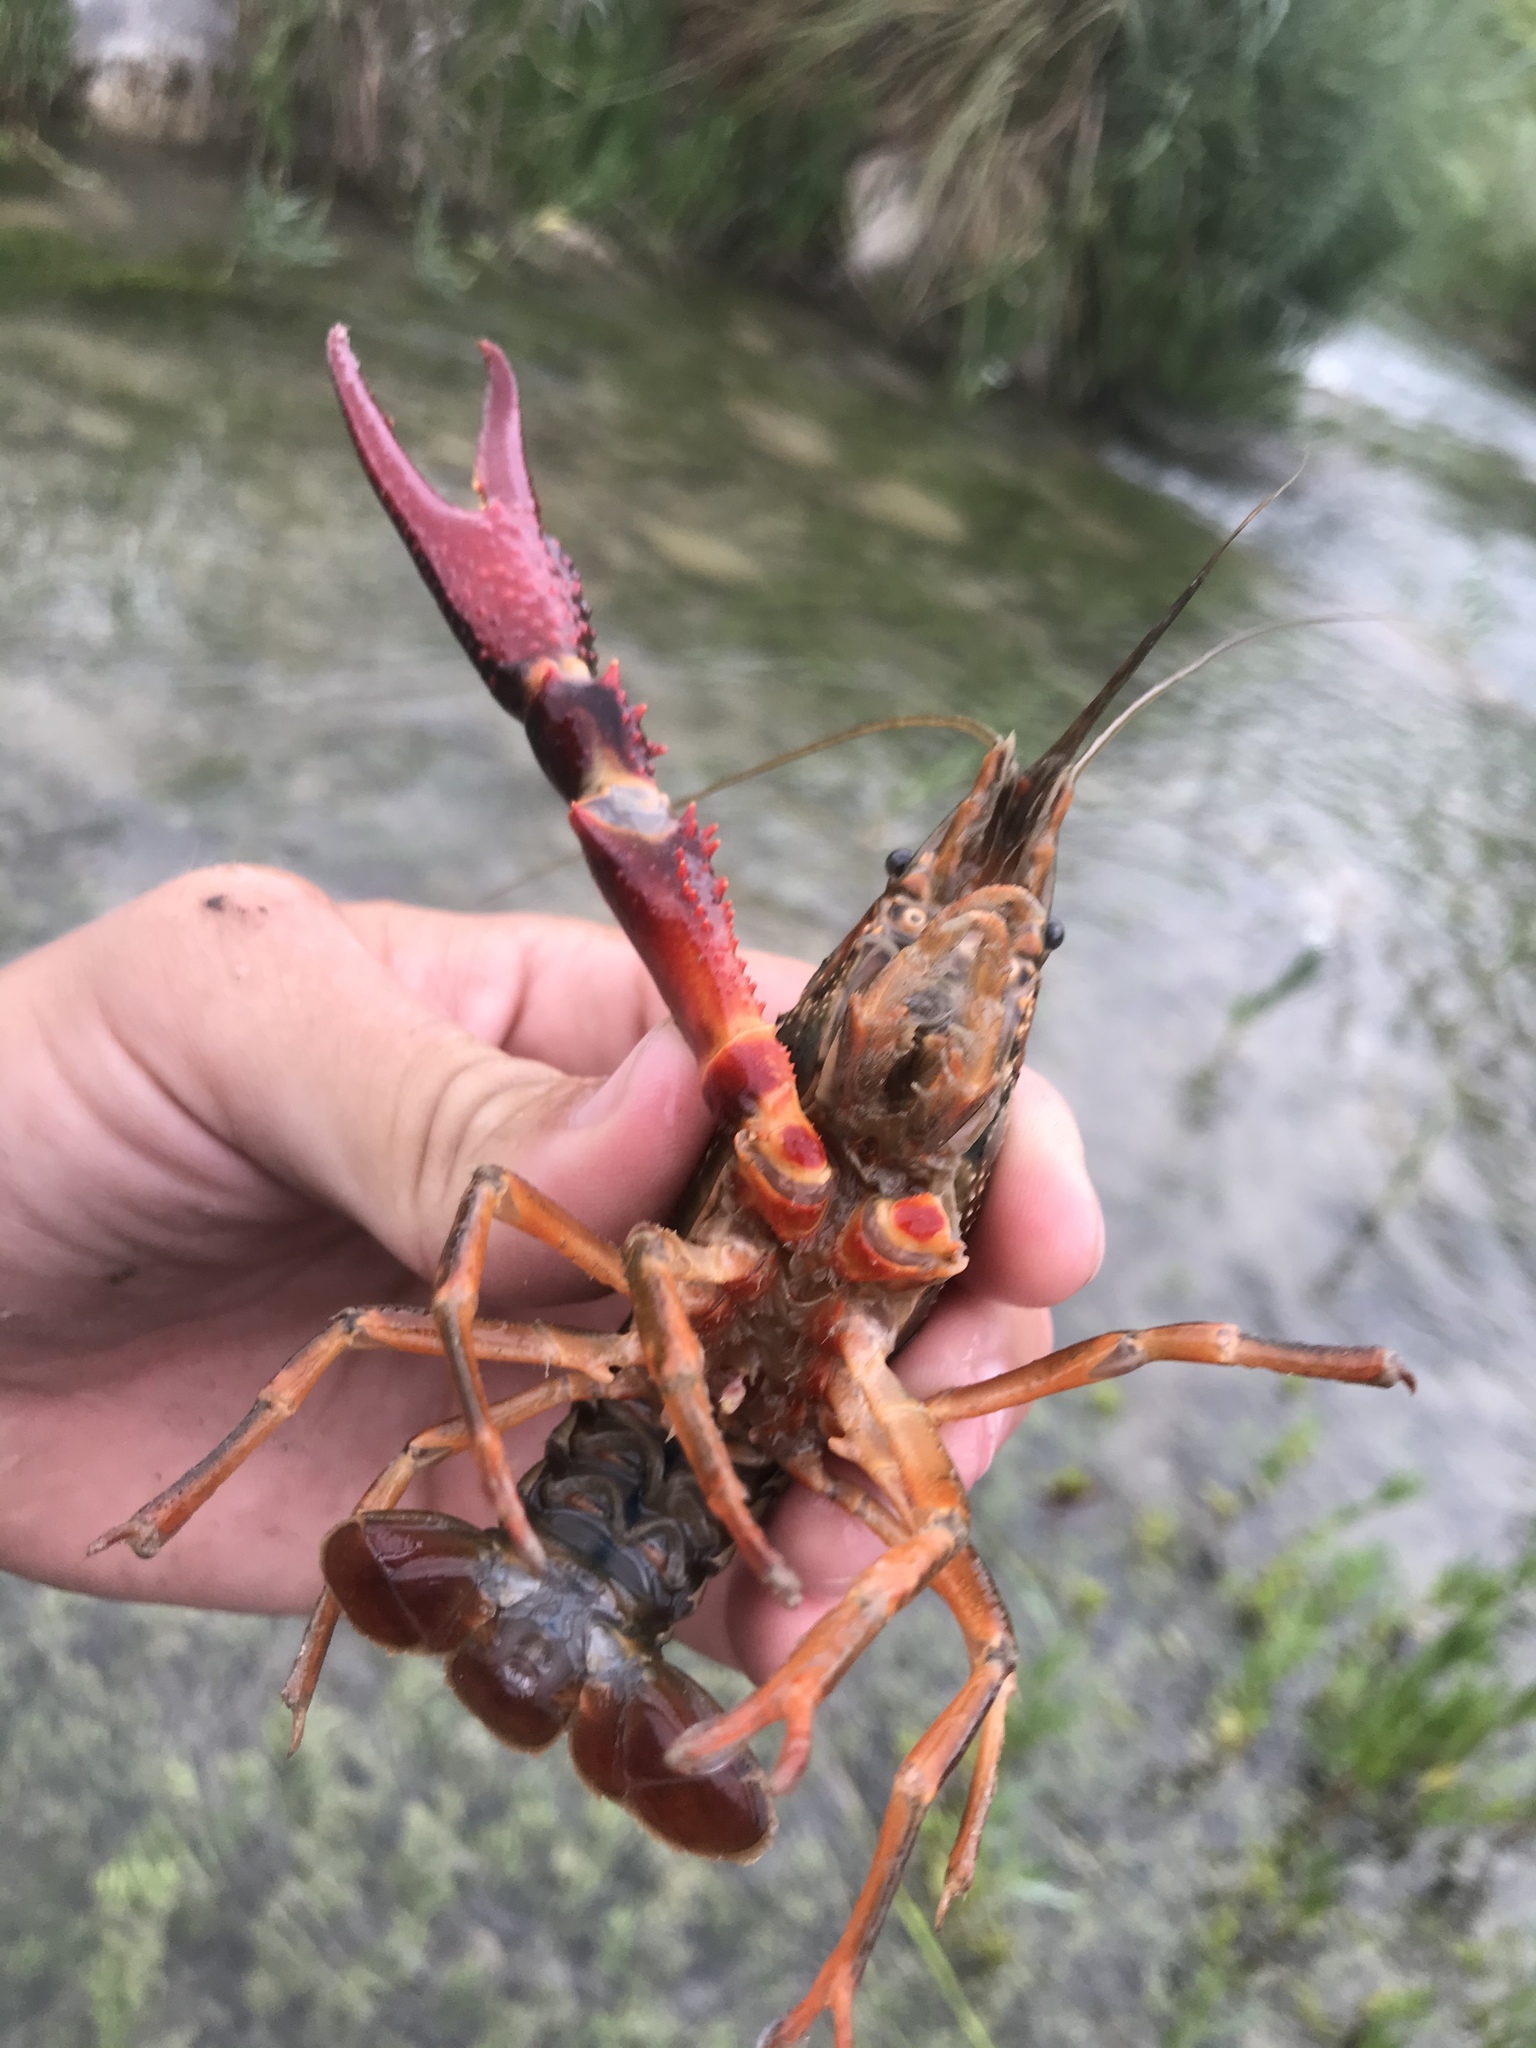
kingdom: Animalia
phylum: Arthropoda
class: Malacostraca
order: Decapoda
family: Cambaridae
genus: Procambarus
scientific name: Procambarus clarkii
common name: Red swamp crayfish
